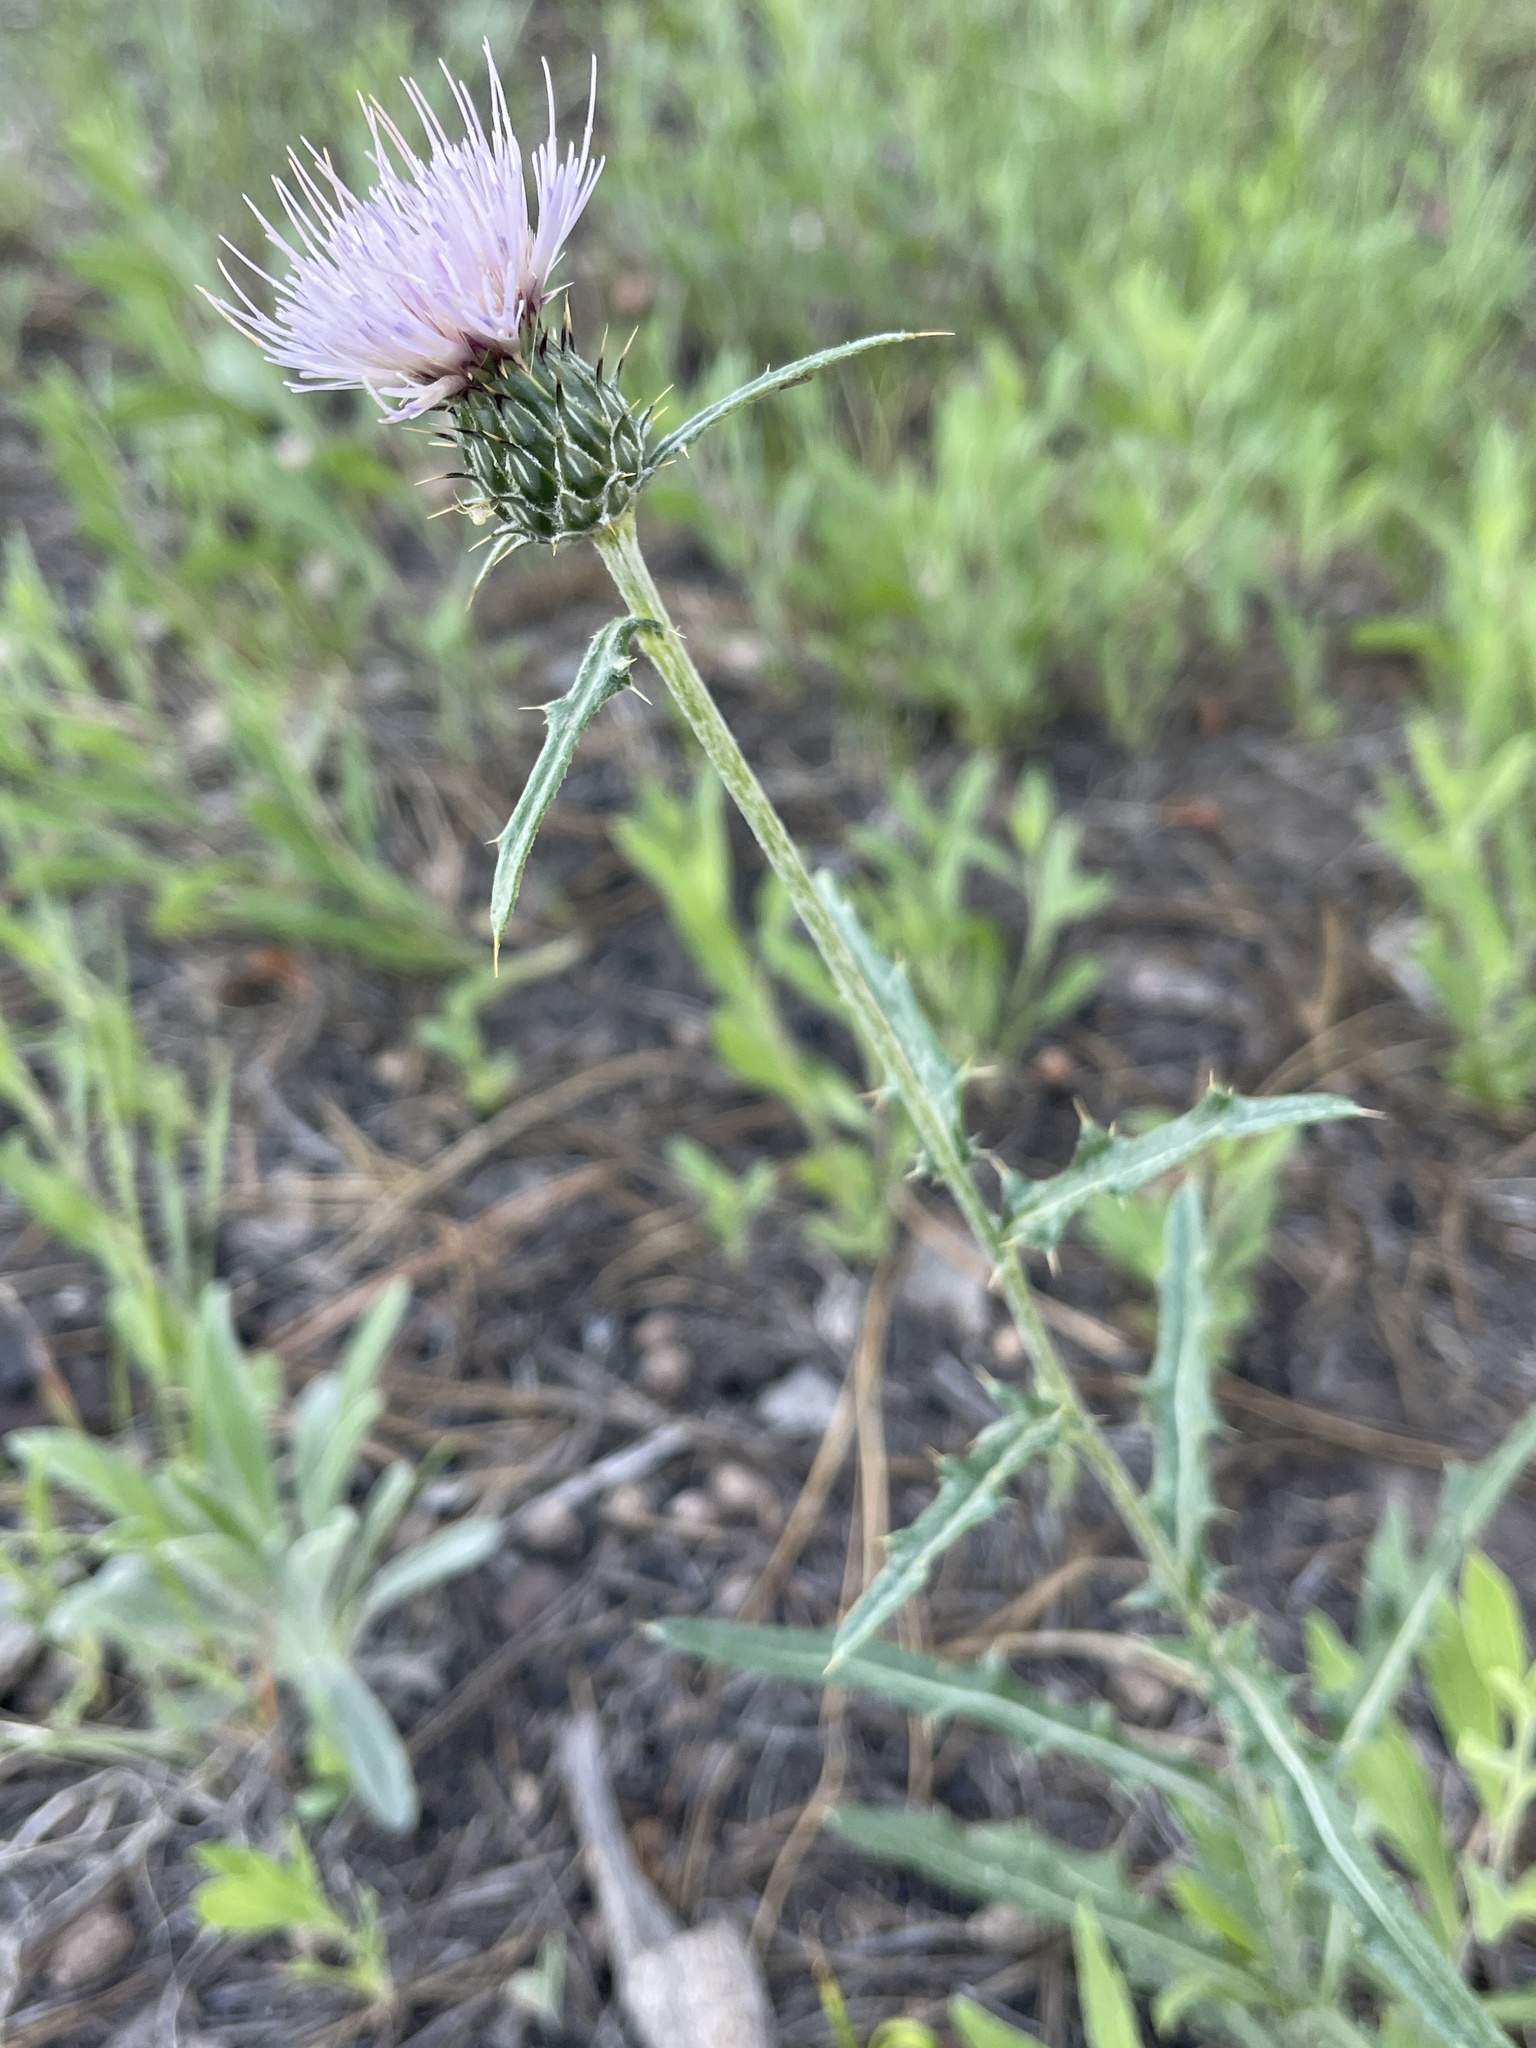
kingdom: Plantae
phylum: Tracheophyta
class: Magnoliopsida
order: Asterales
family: Asteraceae
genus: Cirsium
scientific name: Cirsium wheeleri
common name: Wheeler's thistle
